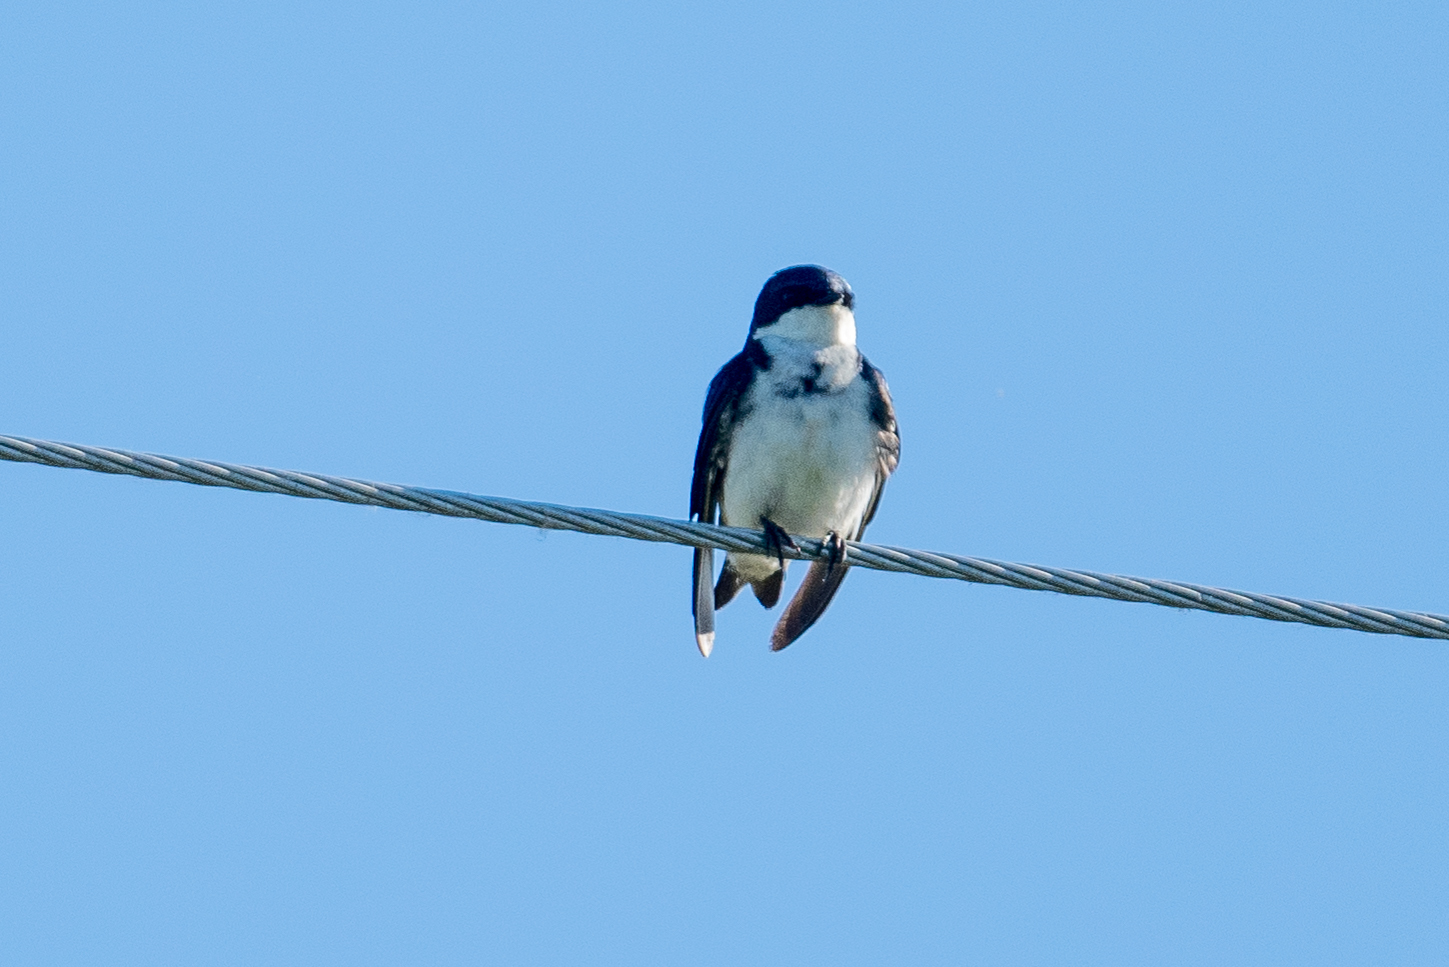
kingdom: Animalia
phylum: Chordata
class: Aves
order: Passeriformes
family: Hirundinidae
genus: Tachycineta
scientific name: Tachycineta bicolor
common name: Tree swallow
